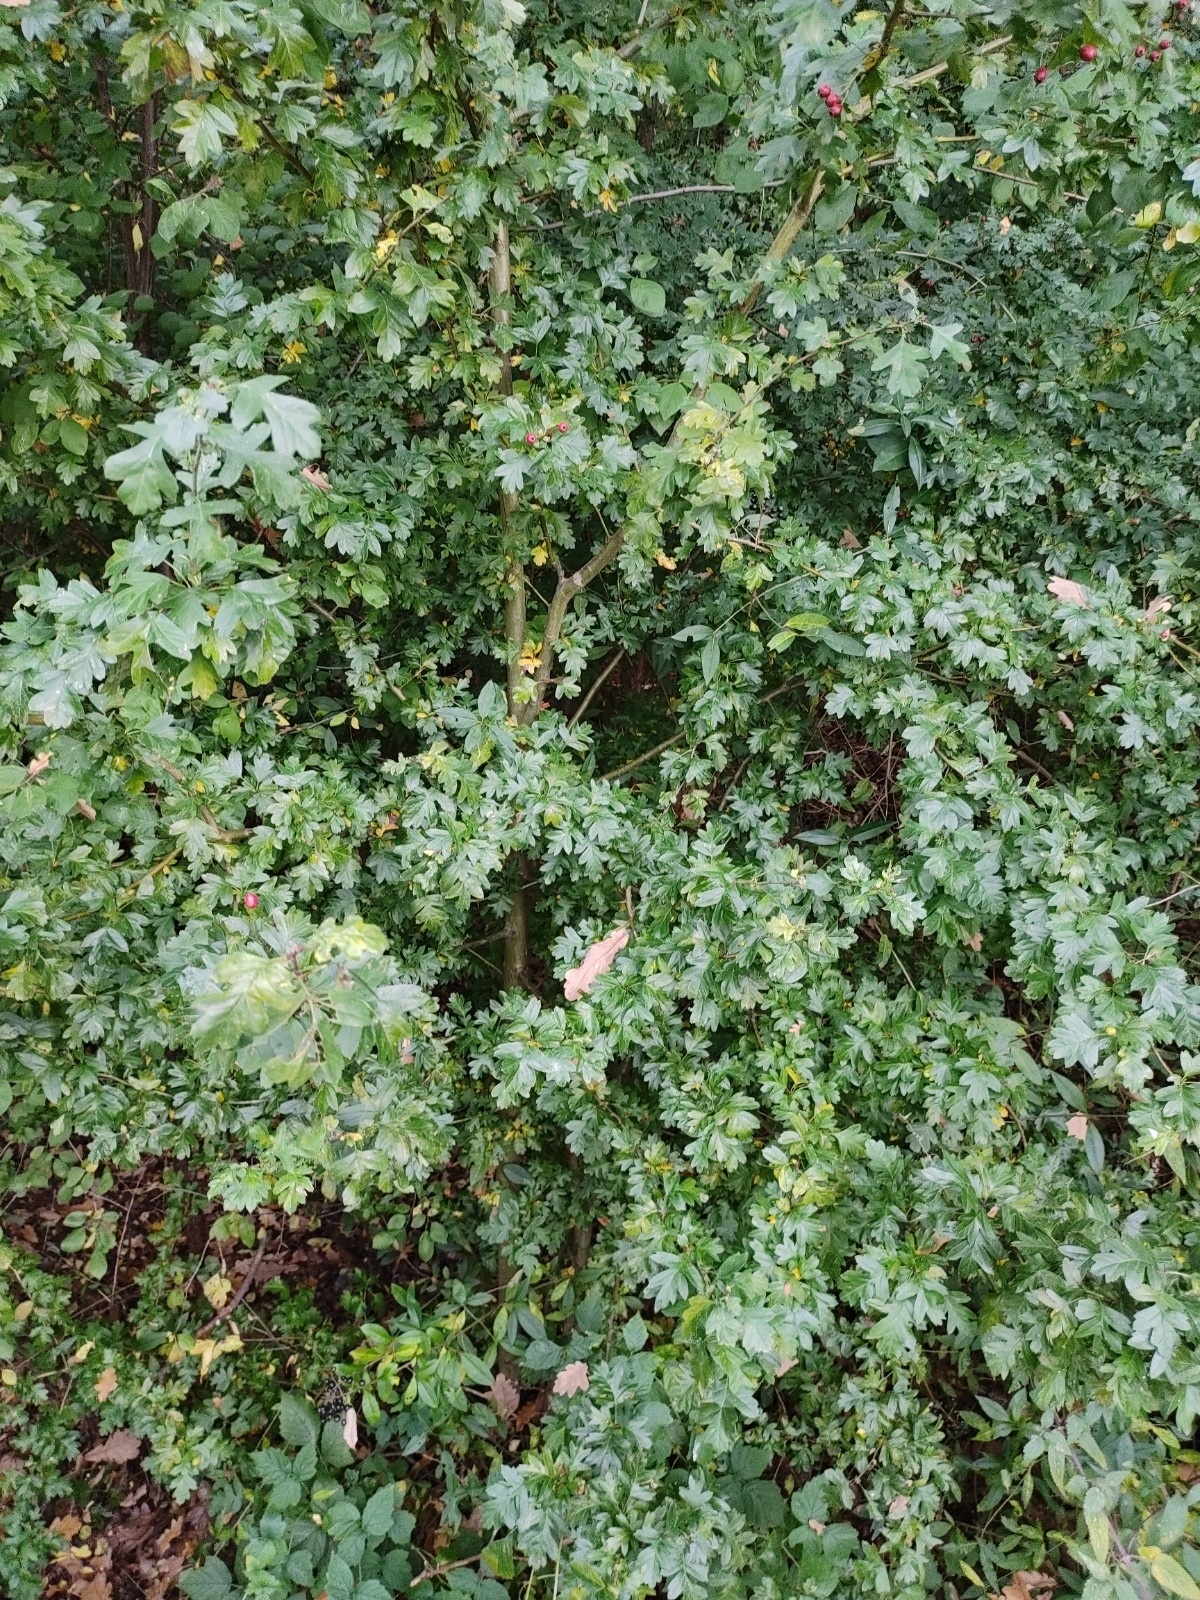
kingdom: Plantae
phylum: Tracheophyta
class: Magnoliopsida
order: Rosales
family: Rosaceae
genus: Crataegus
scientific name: Crataegus monogyna
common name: Hawthorn
